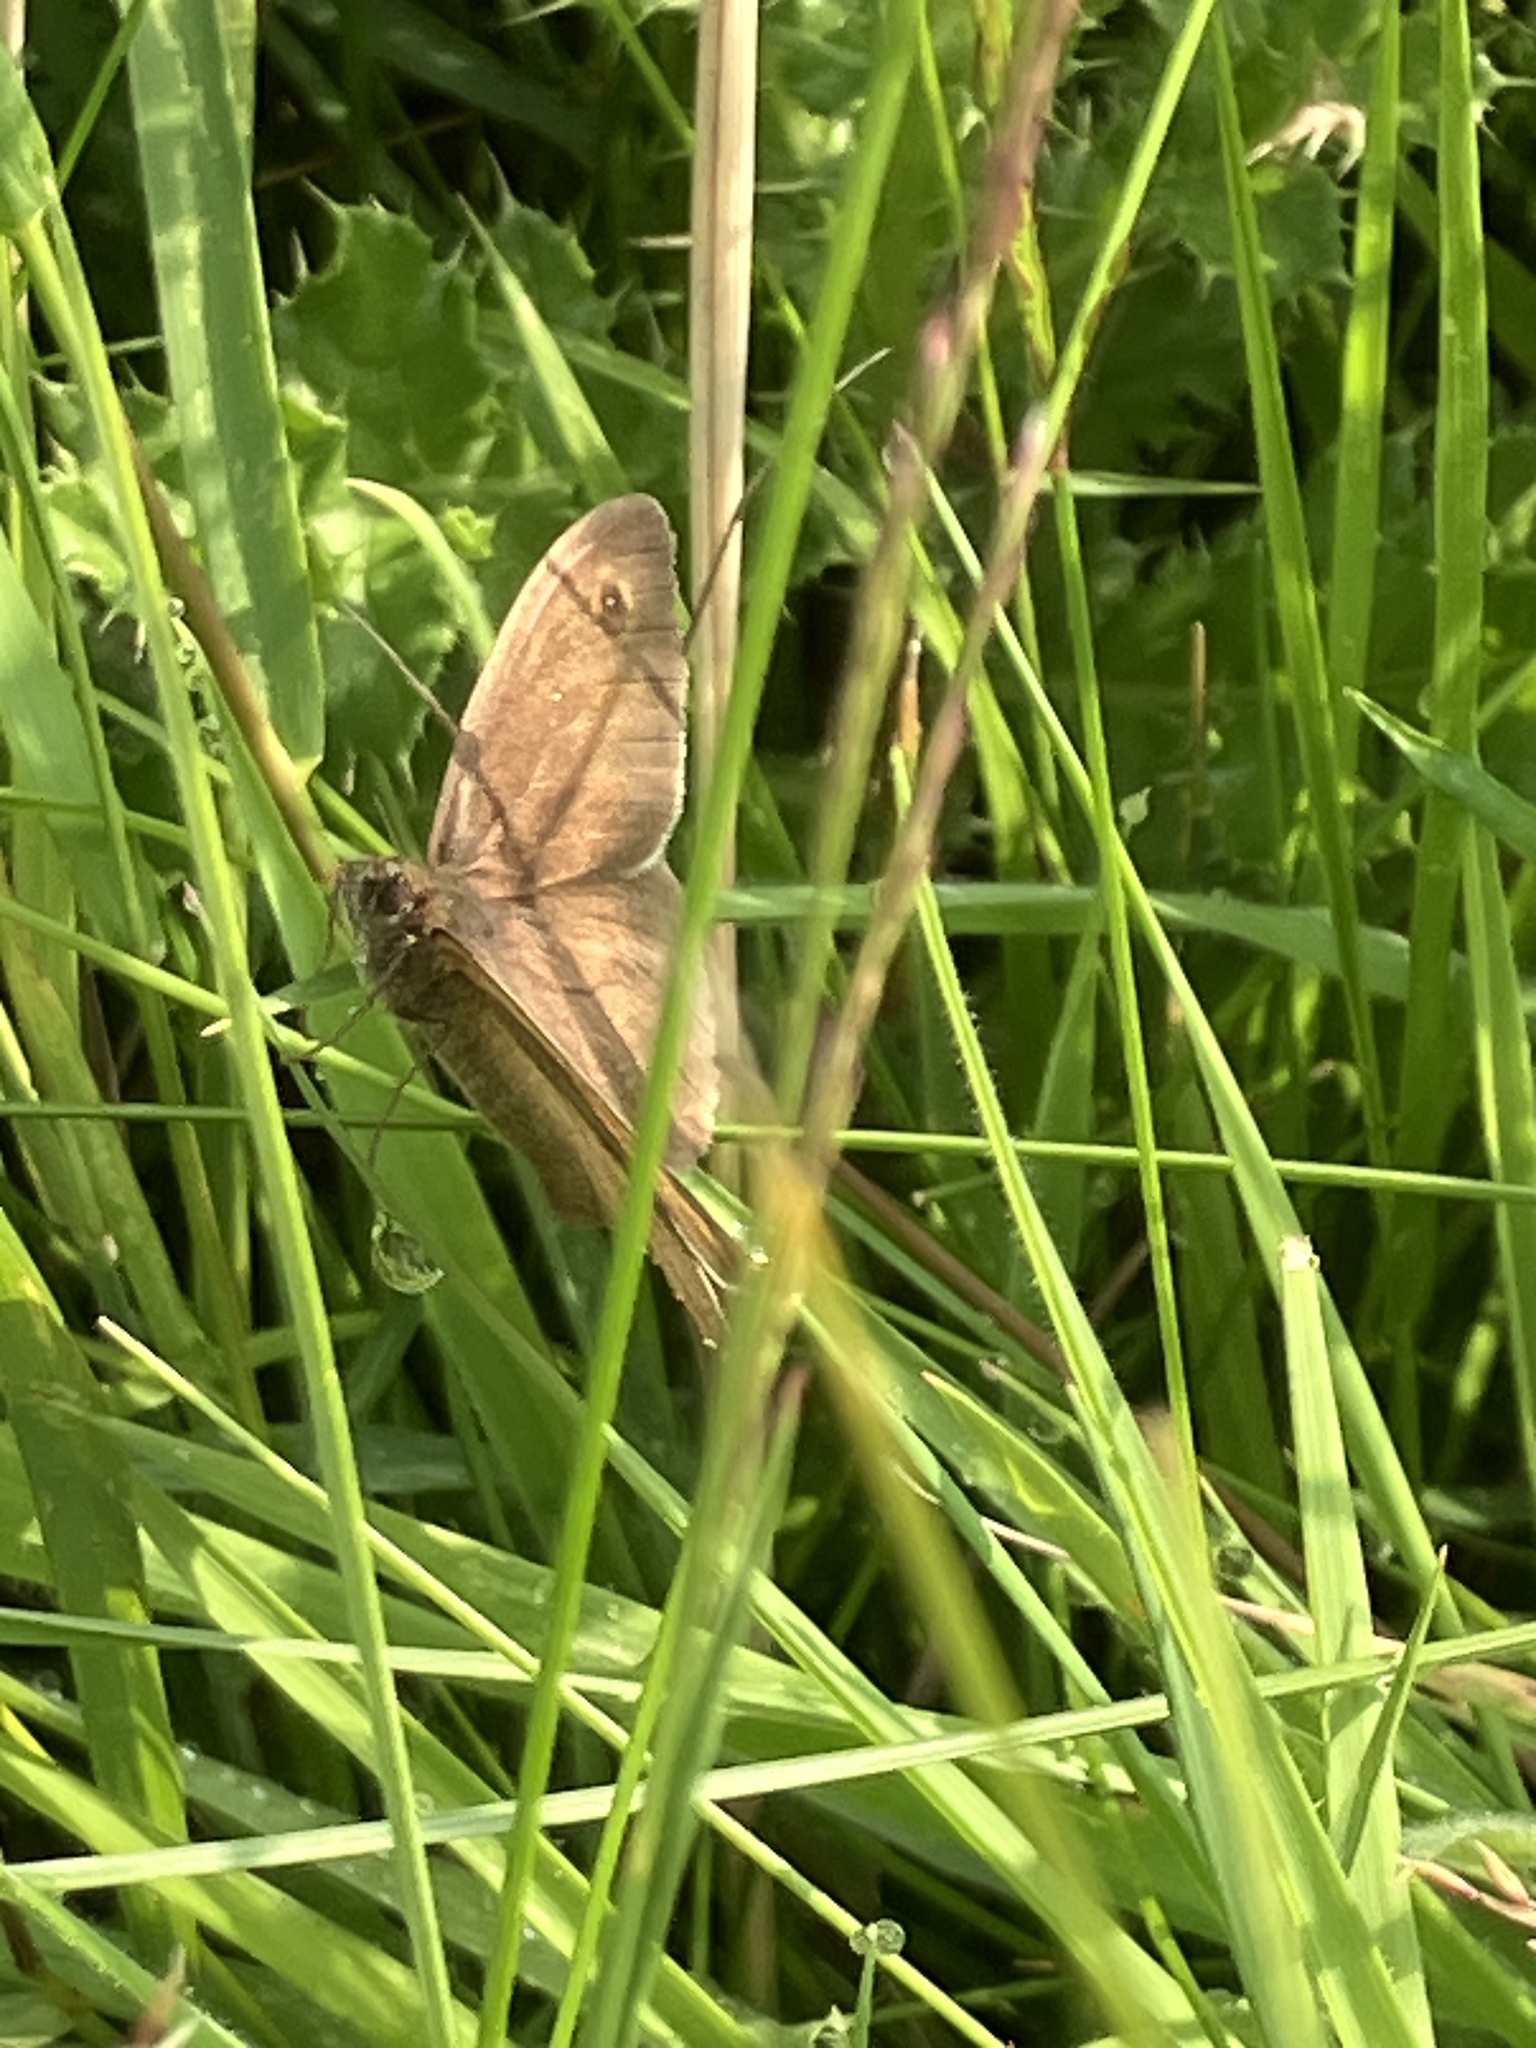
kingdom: Animalia
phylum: Arthropoda
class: Insecta
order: Lepidoptera
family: Nymphalidae
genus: Maniola
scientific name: Maniola jurtina
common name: Meadow brown
